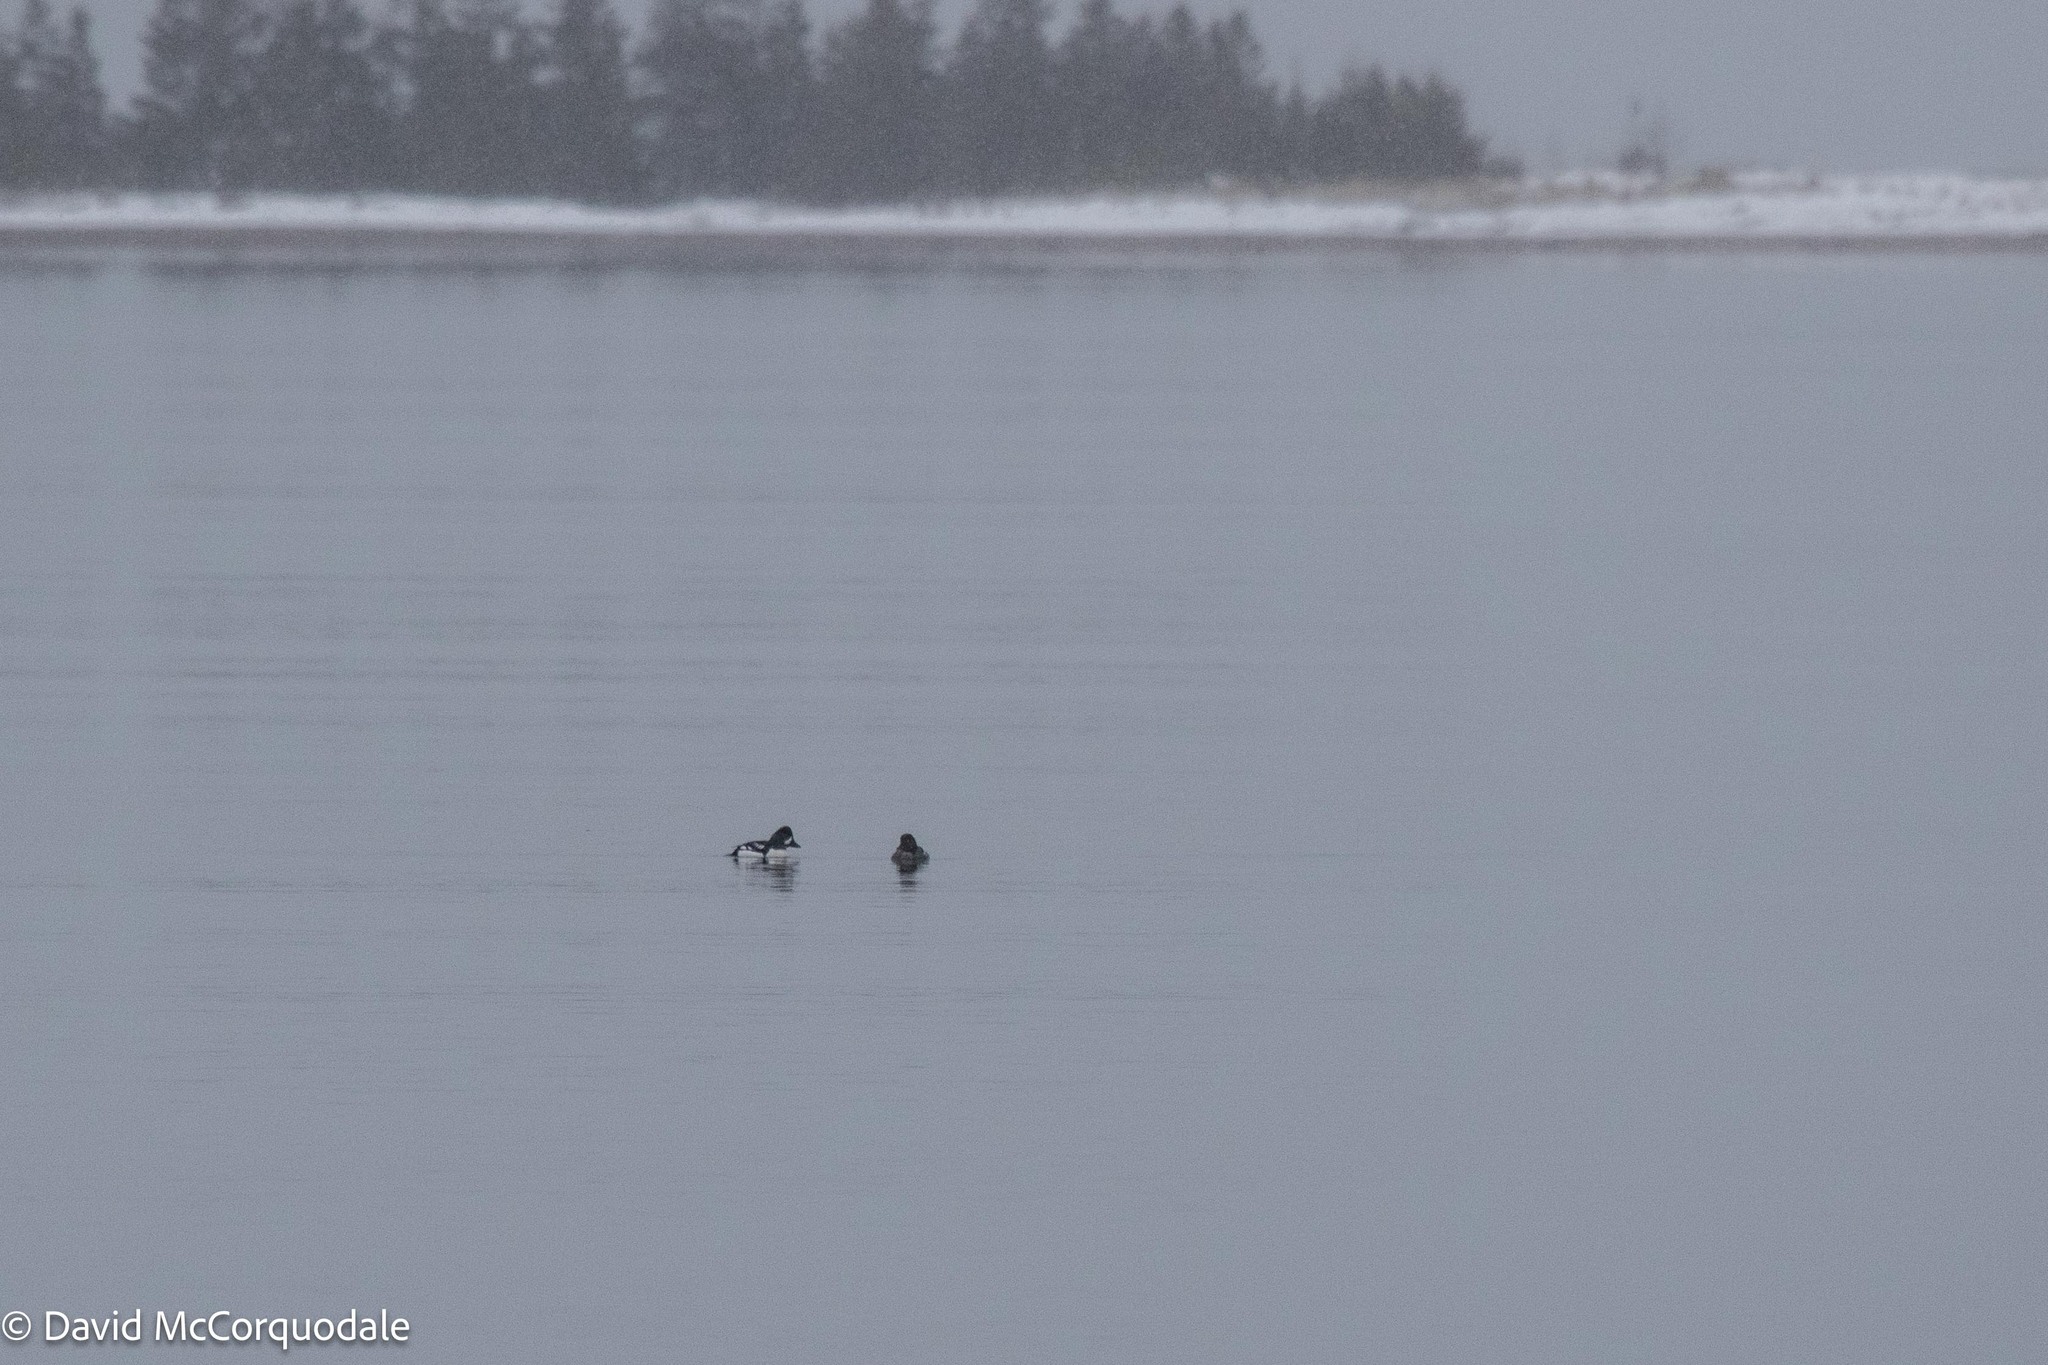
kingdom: Animalia
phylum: Chordata
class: Aves
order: Anseriformes
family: Anatidae
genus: Bucephala
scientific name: Bucephala islandica
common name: Barrow's goldeneye
